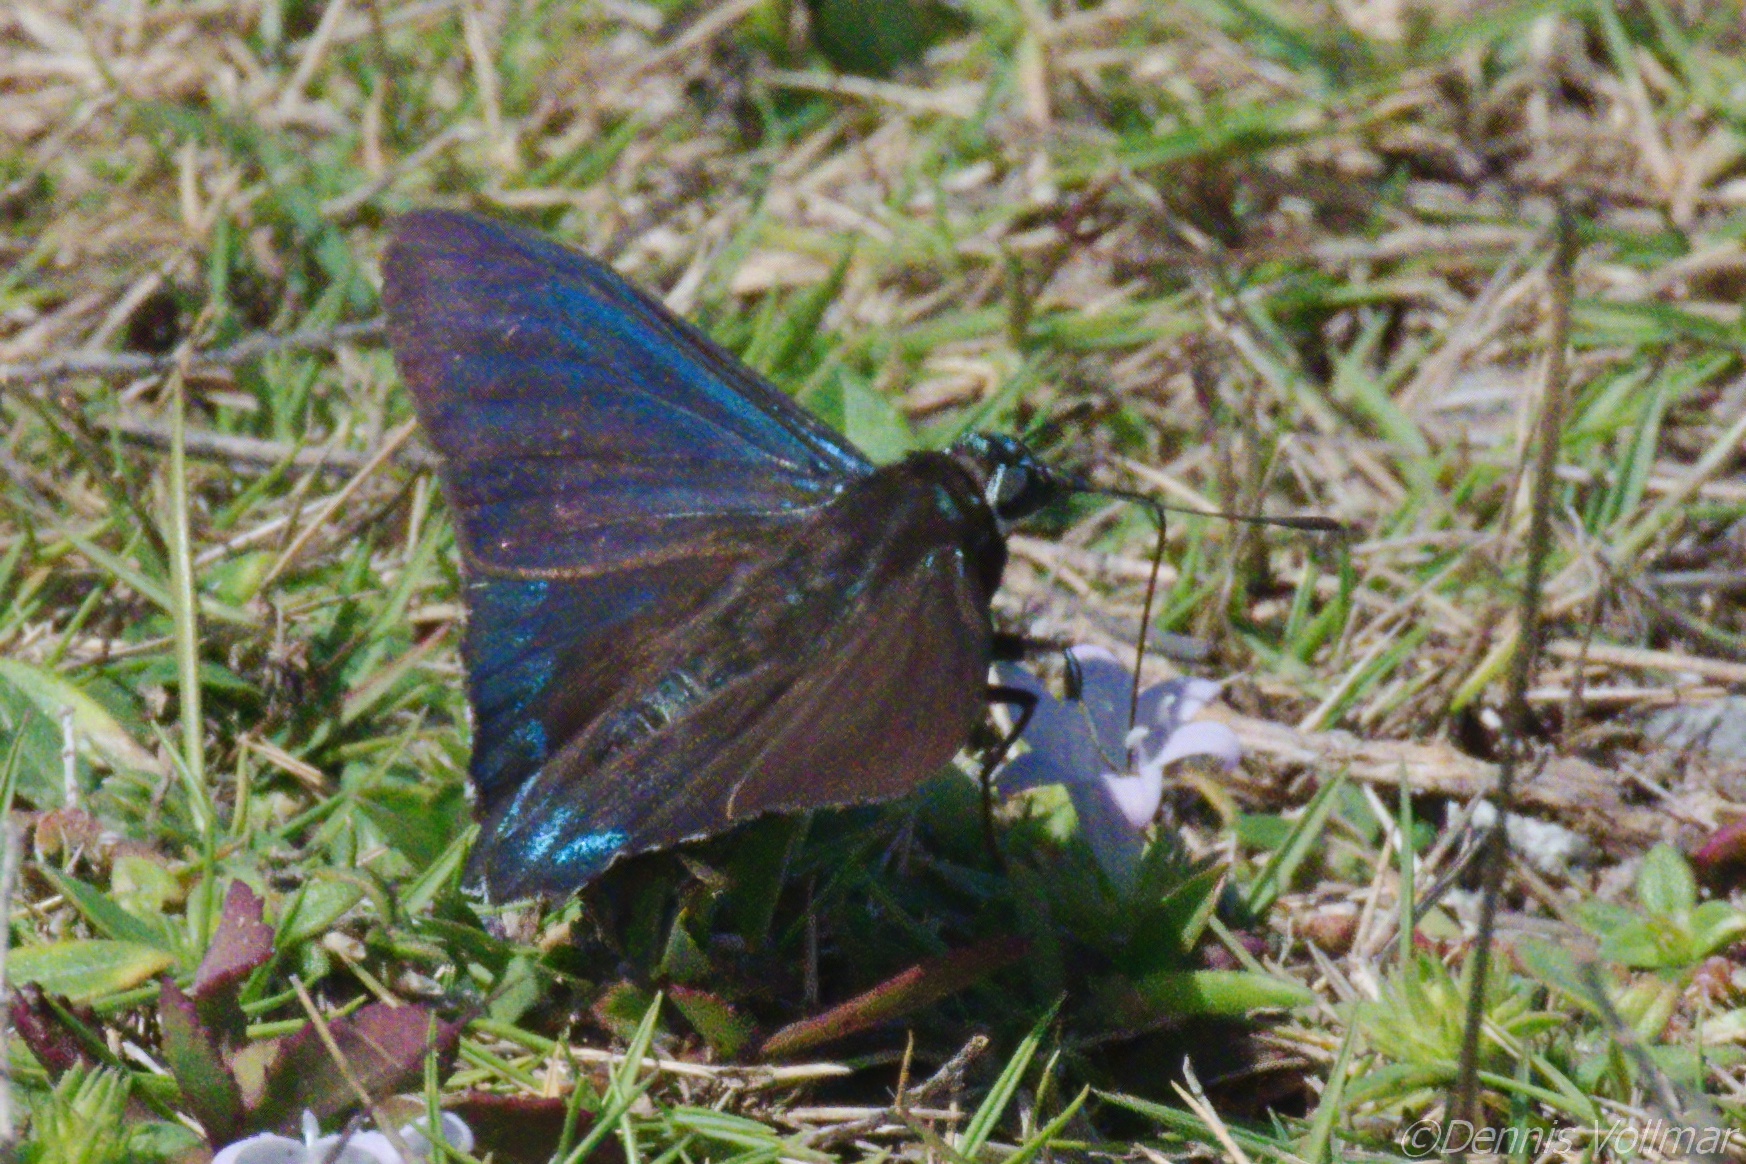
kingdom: Animalia
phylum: Arthropoda
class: Insecta
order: Lepidoptera
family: Hesperiidae
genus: Phocides
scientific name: Phocides pigmalion
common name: Mangrove skipper
